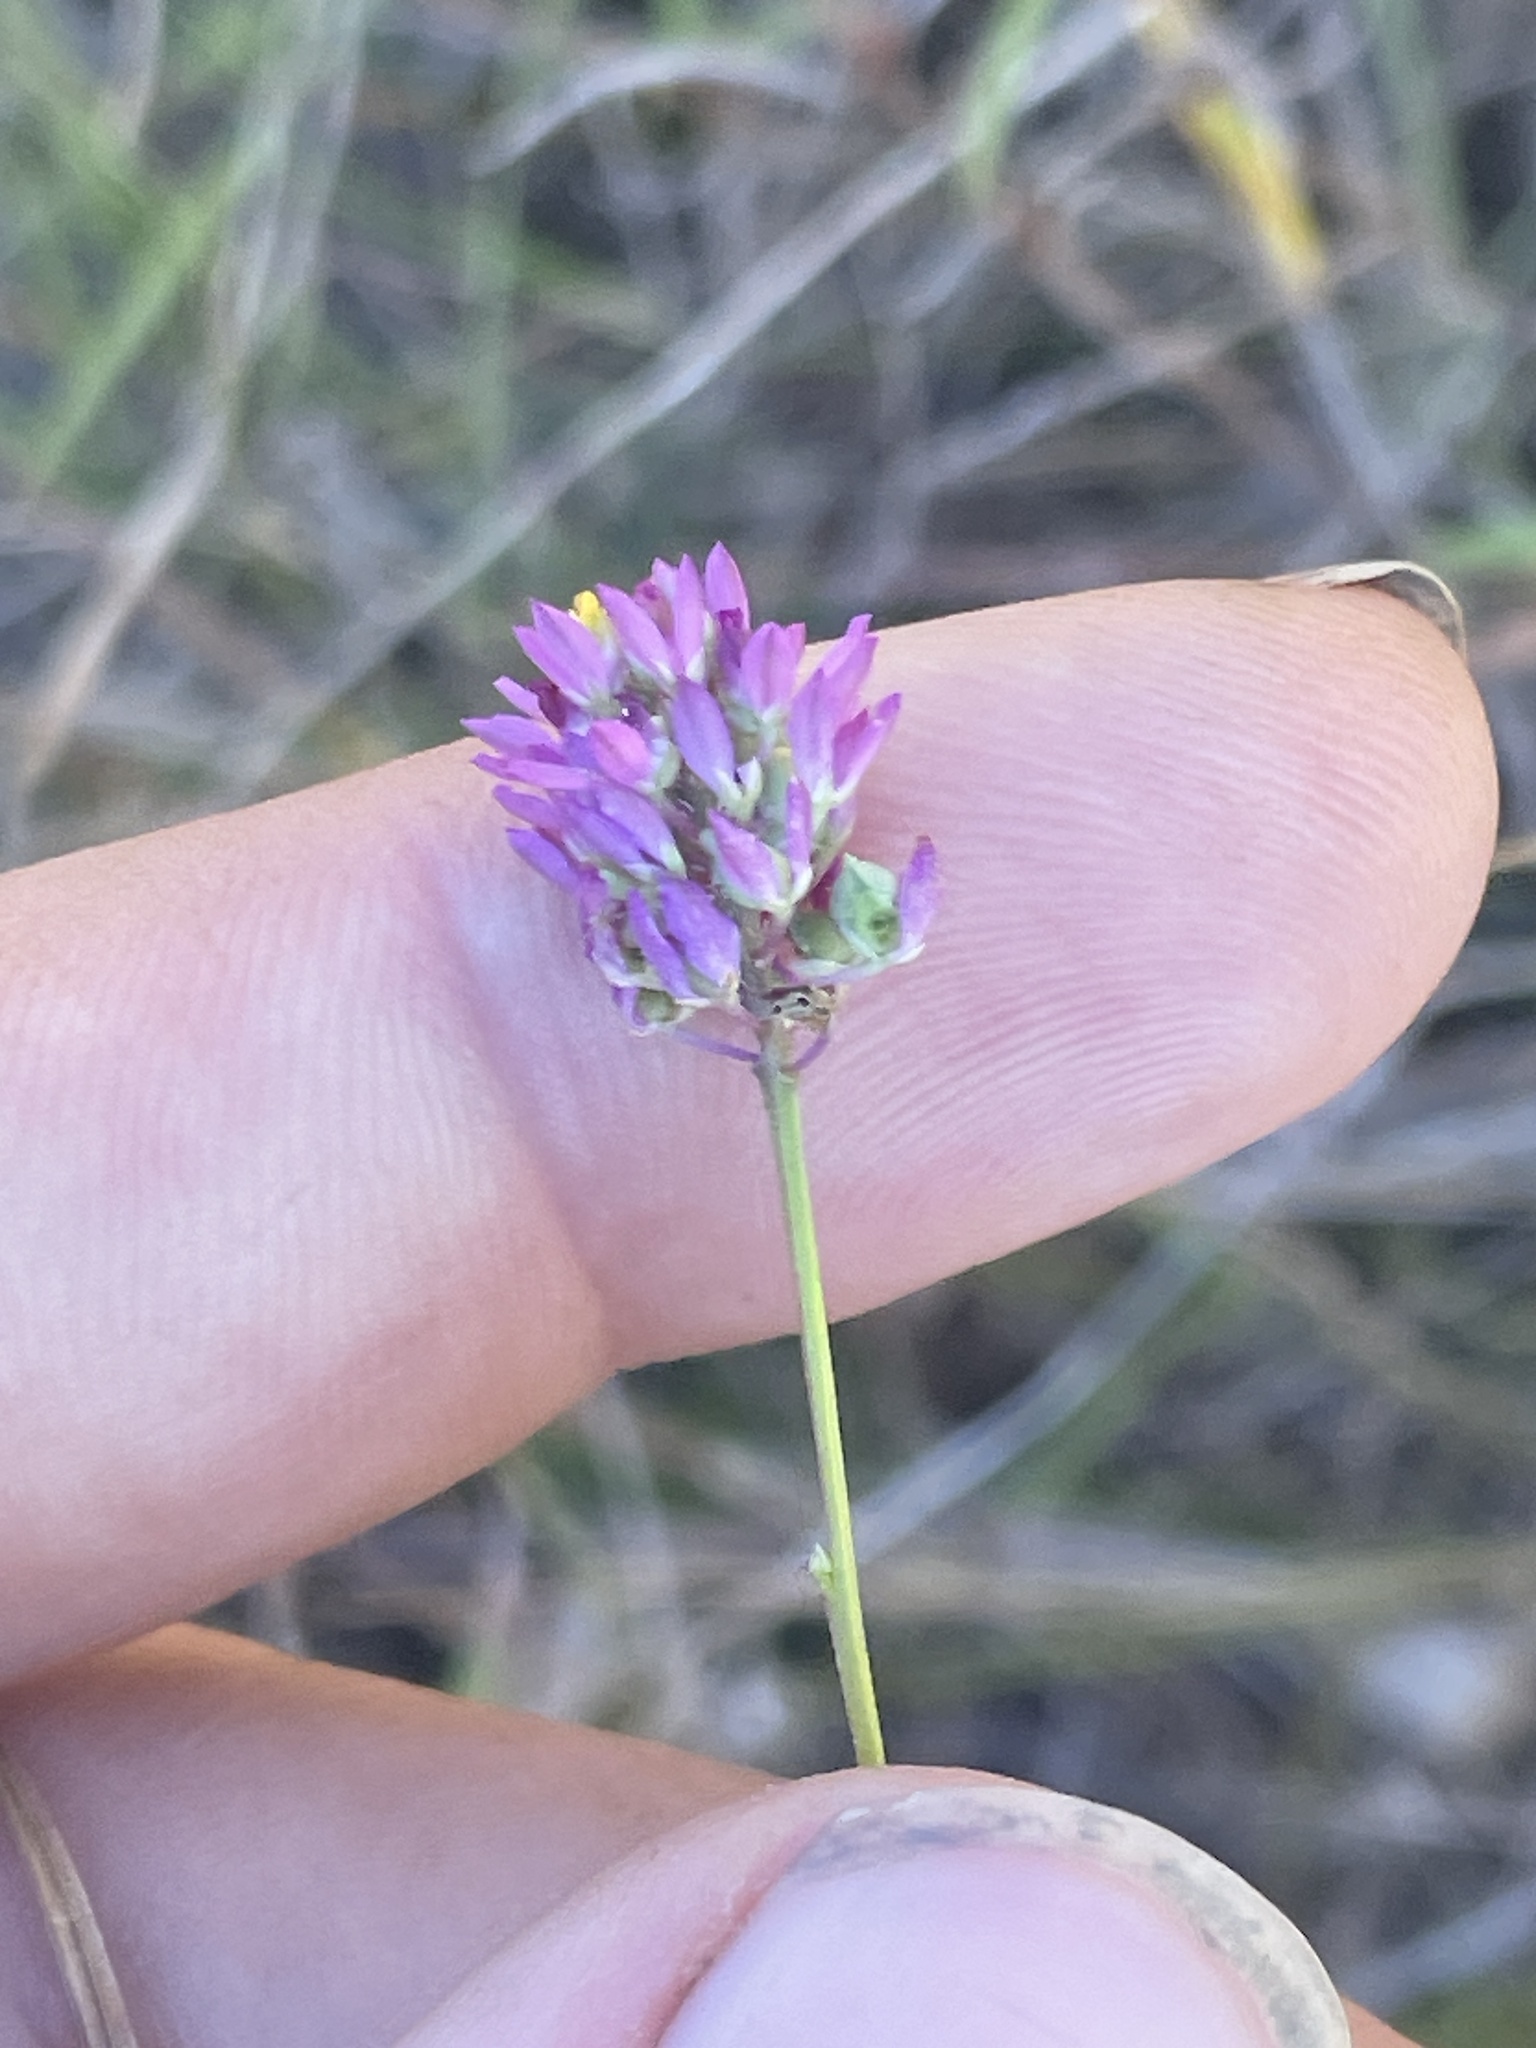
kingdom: Plantae
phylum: Tracheophyta
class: Magnoliopsida
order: Fabales
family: Polygalaceae
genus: Polygala
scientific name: Polygala curtissii
